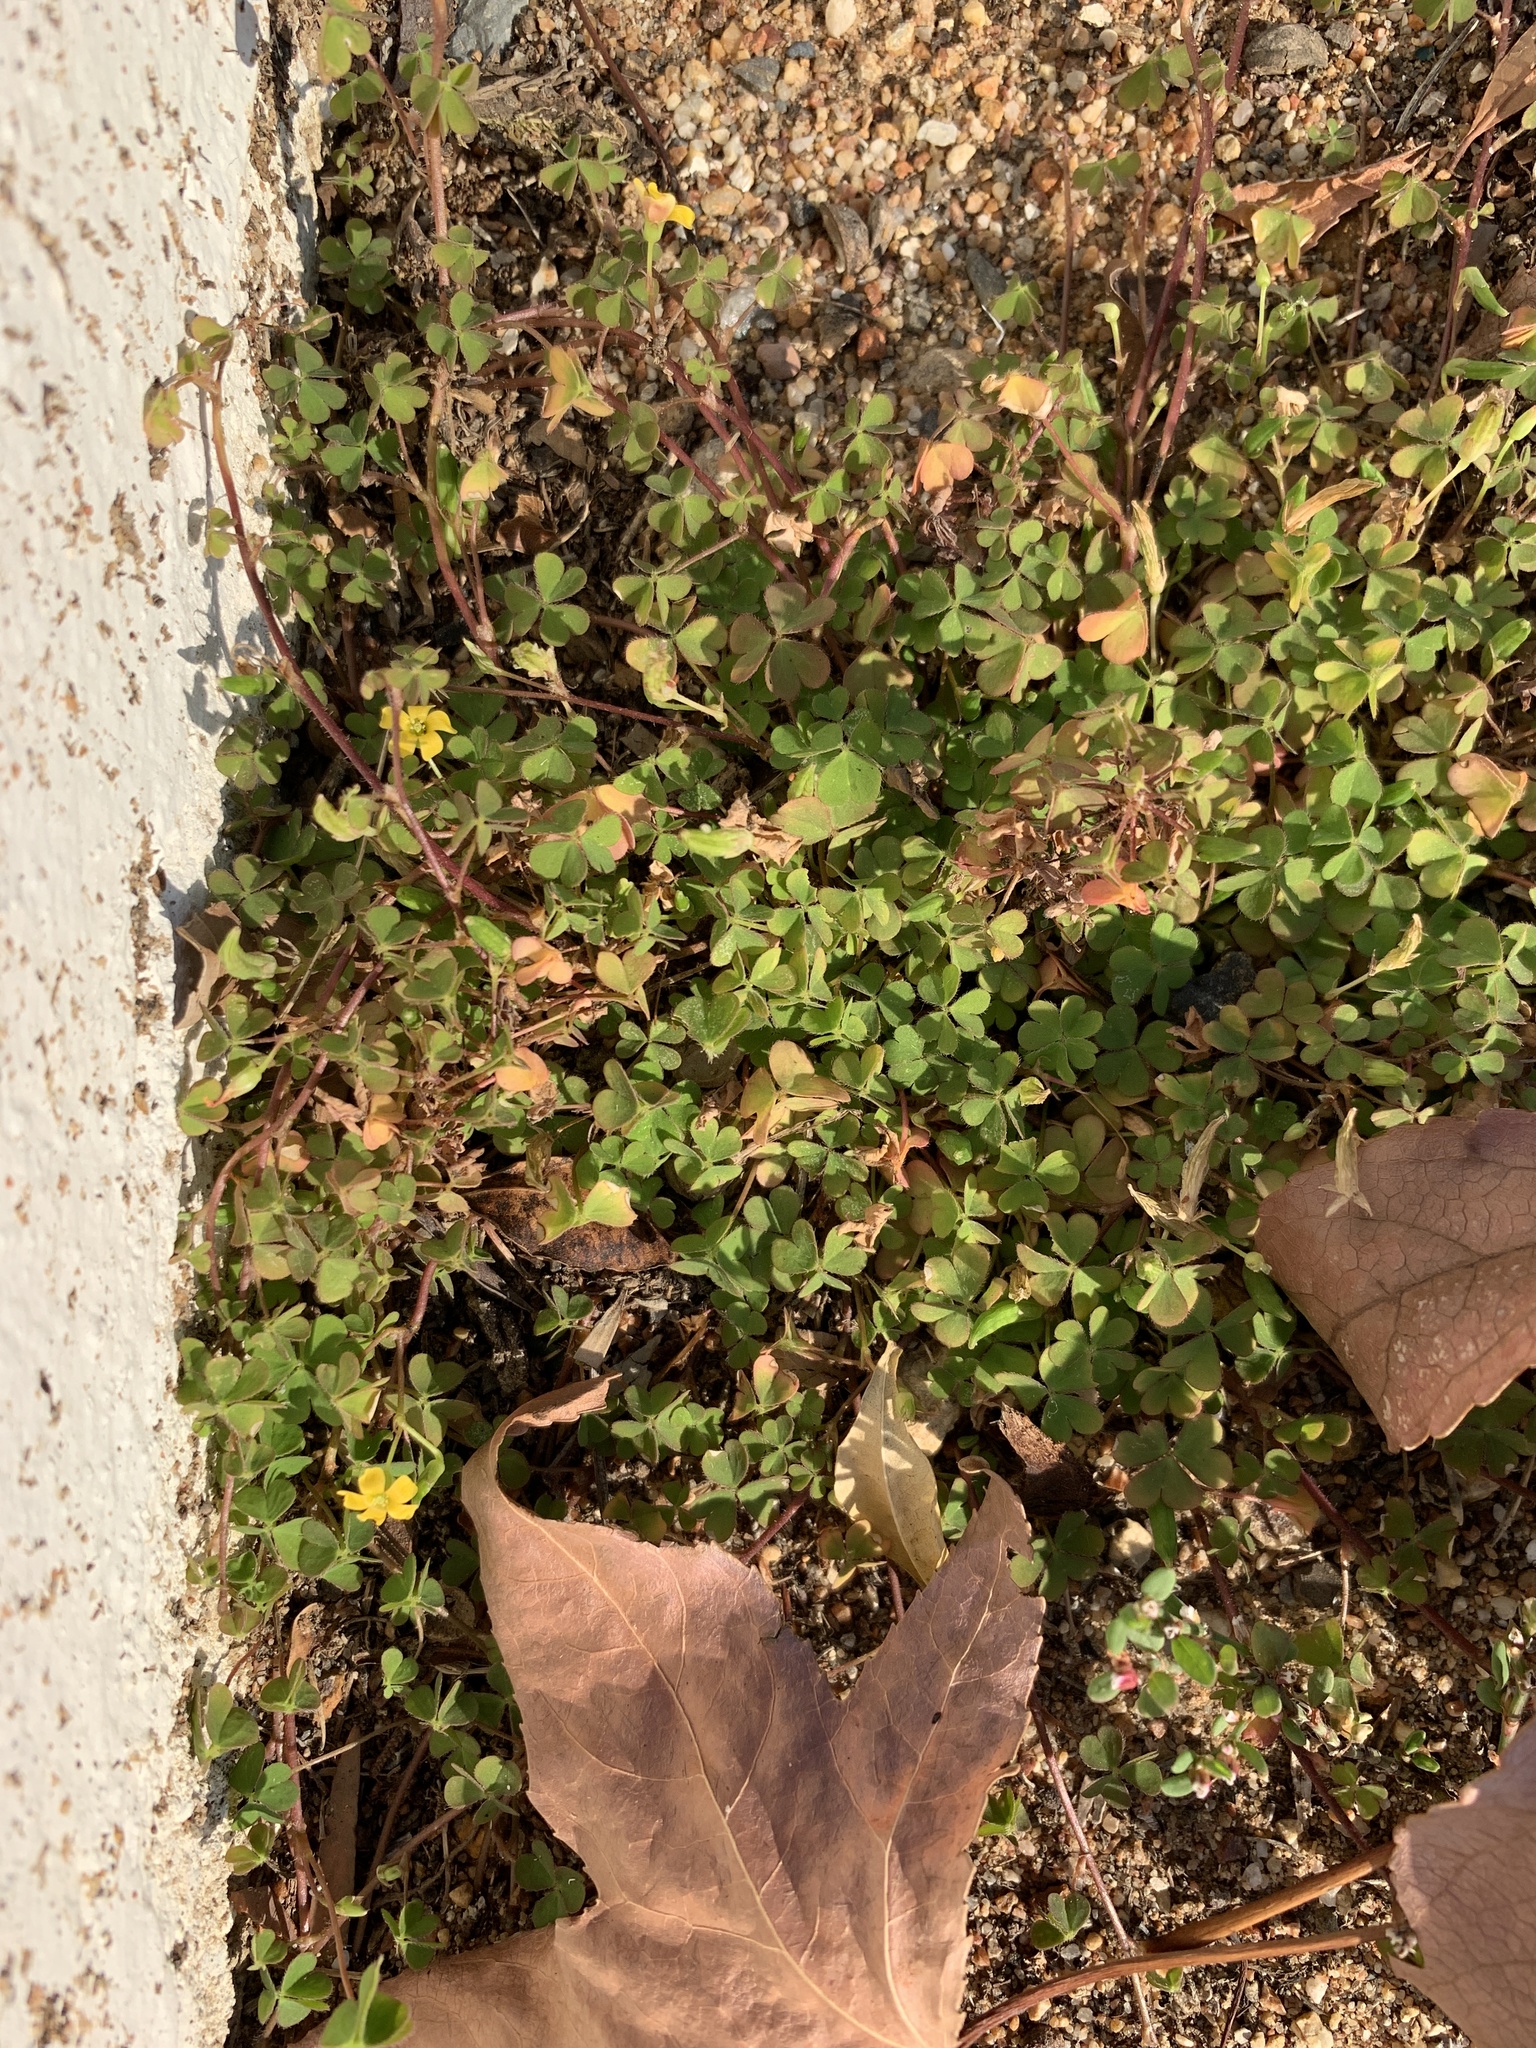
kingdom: Plantae
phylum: Tracheophyta
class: Magnoliopsida
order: Oxalidales
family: Oxalidaceae
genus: Oxalis
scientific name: Oxalis corniculata
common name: Procumbent yellow-sorrel
